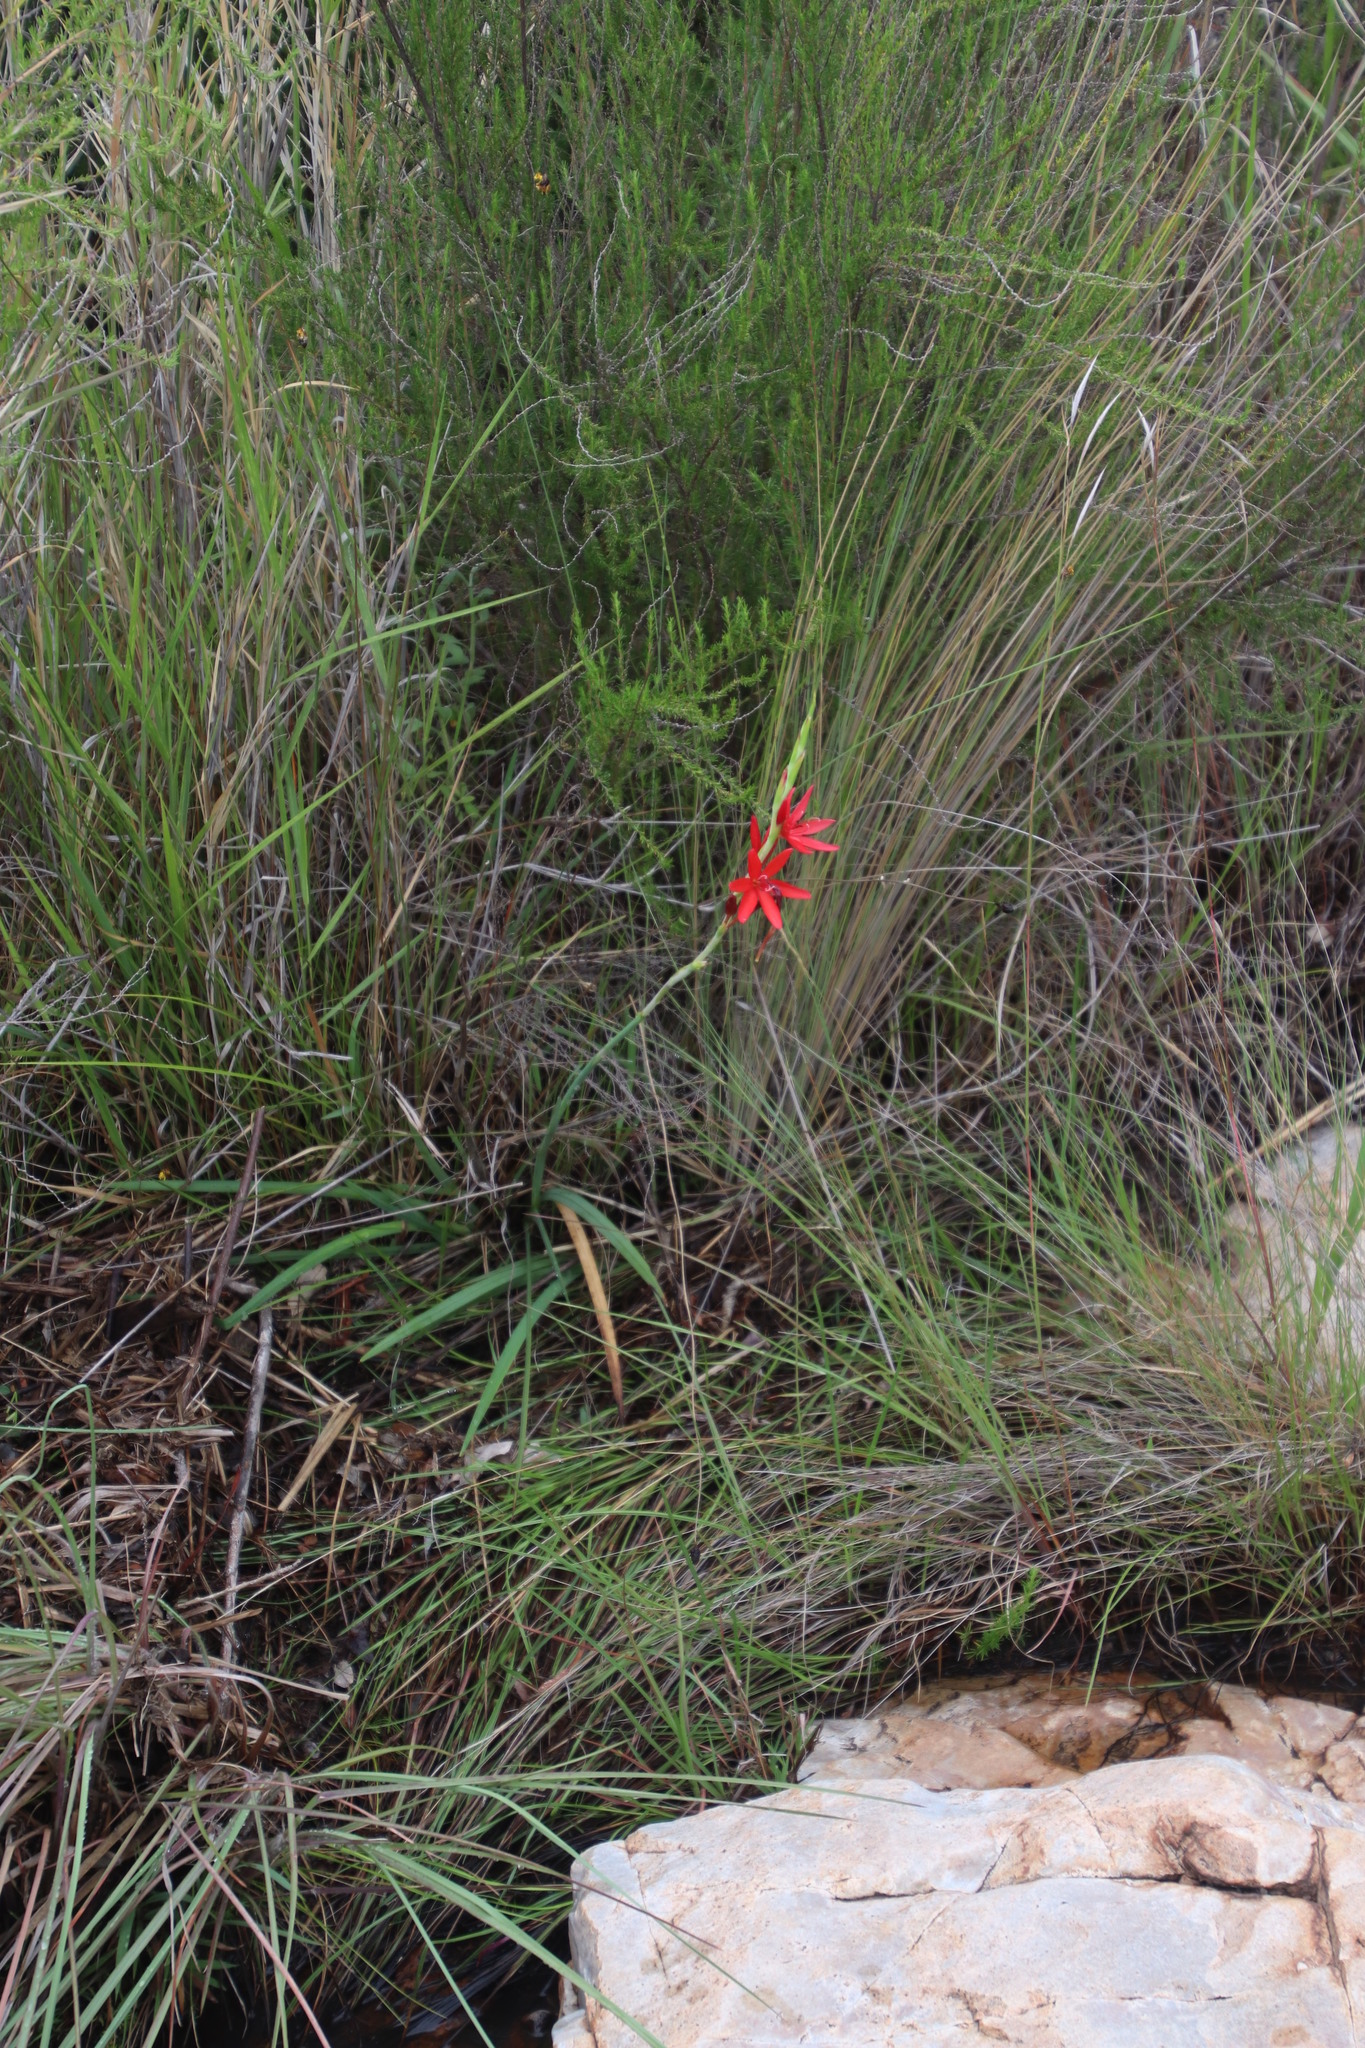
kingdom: Plantae
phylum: Tracheophyta
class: Liliopsida
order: Asparagales
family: Iridaceae
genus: Hesperantha
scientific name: Hesperantha coccinea
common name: River-lily
